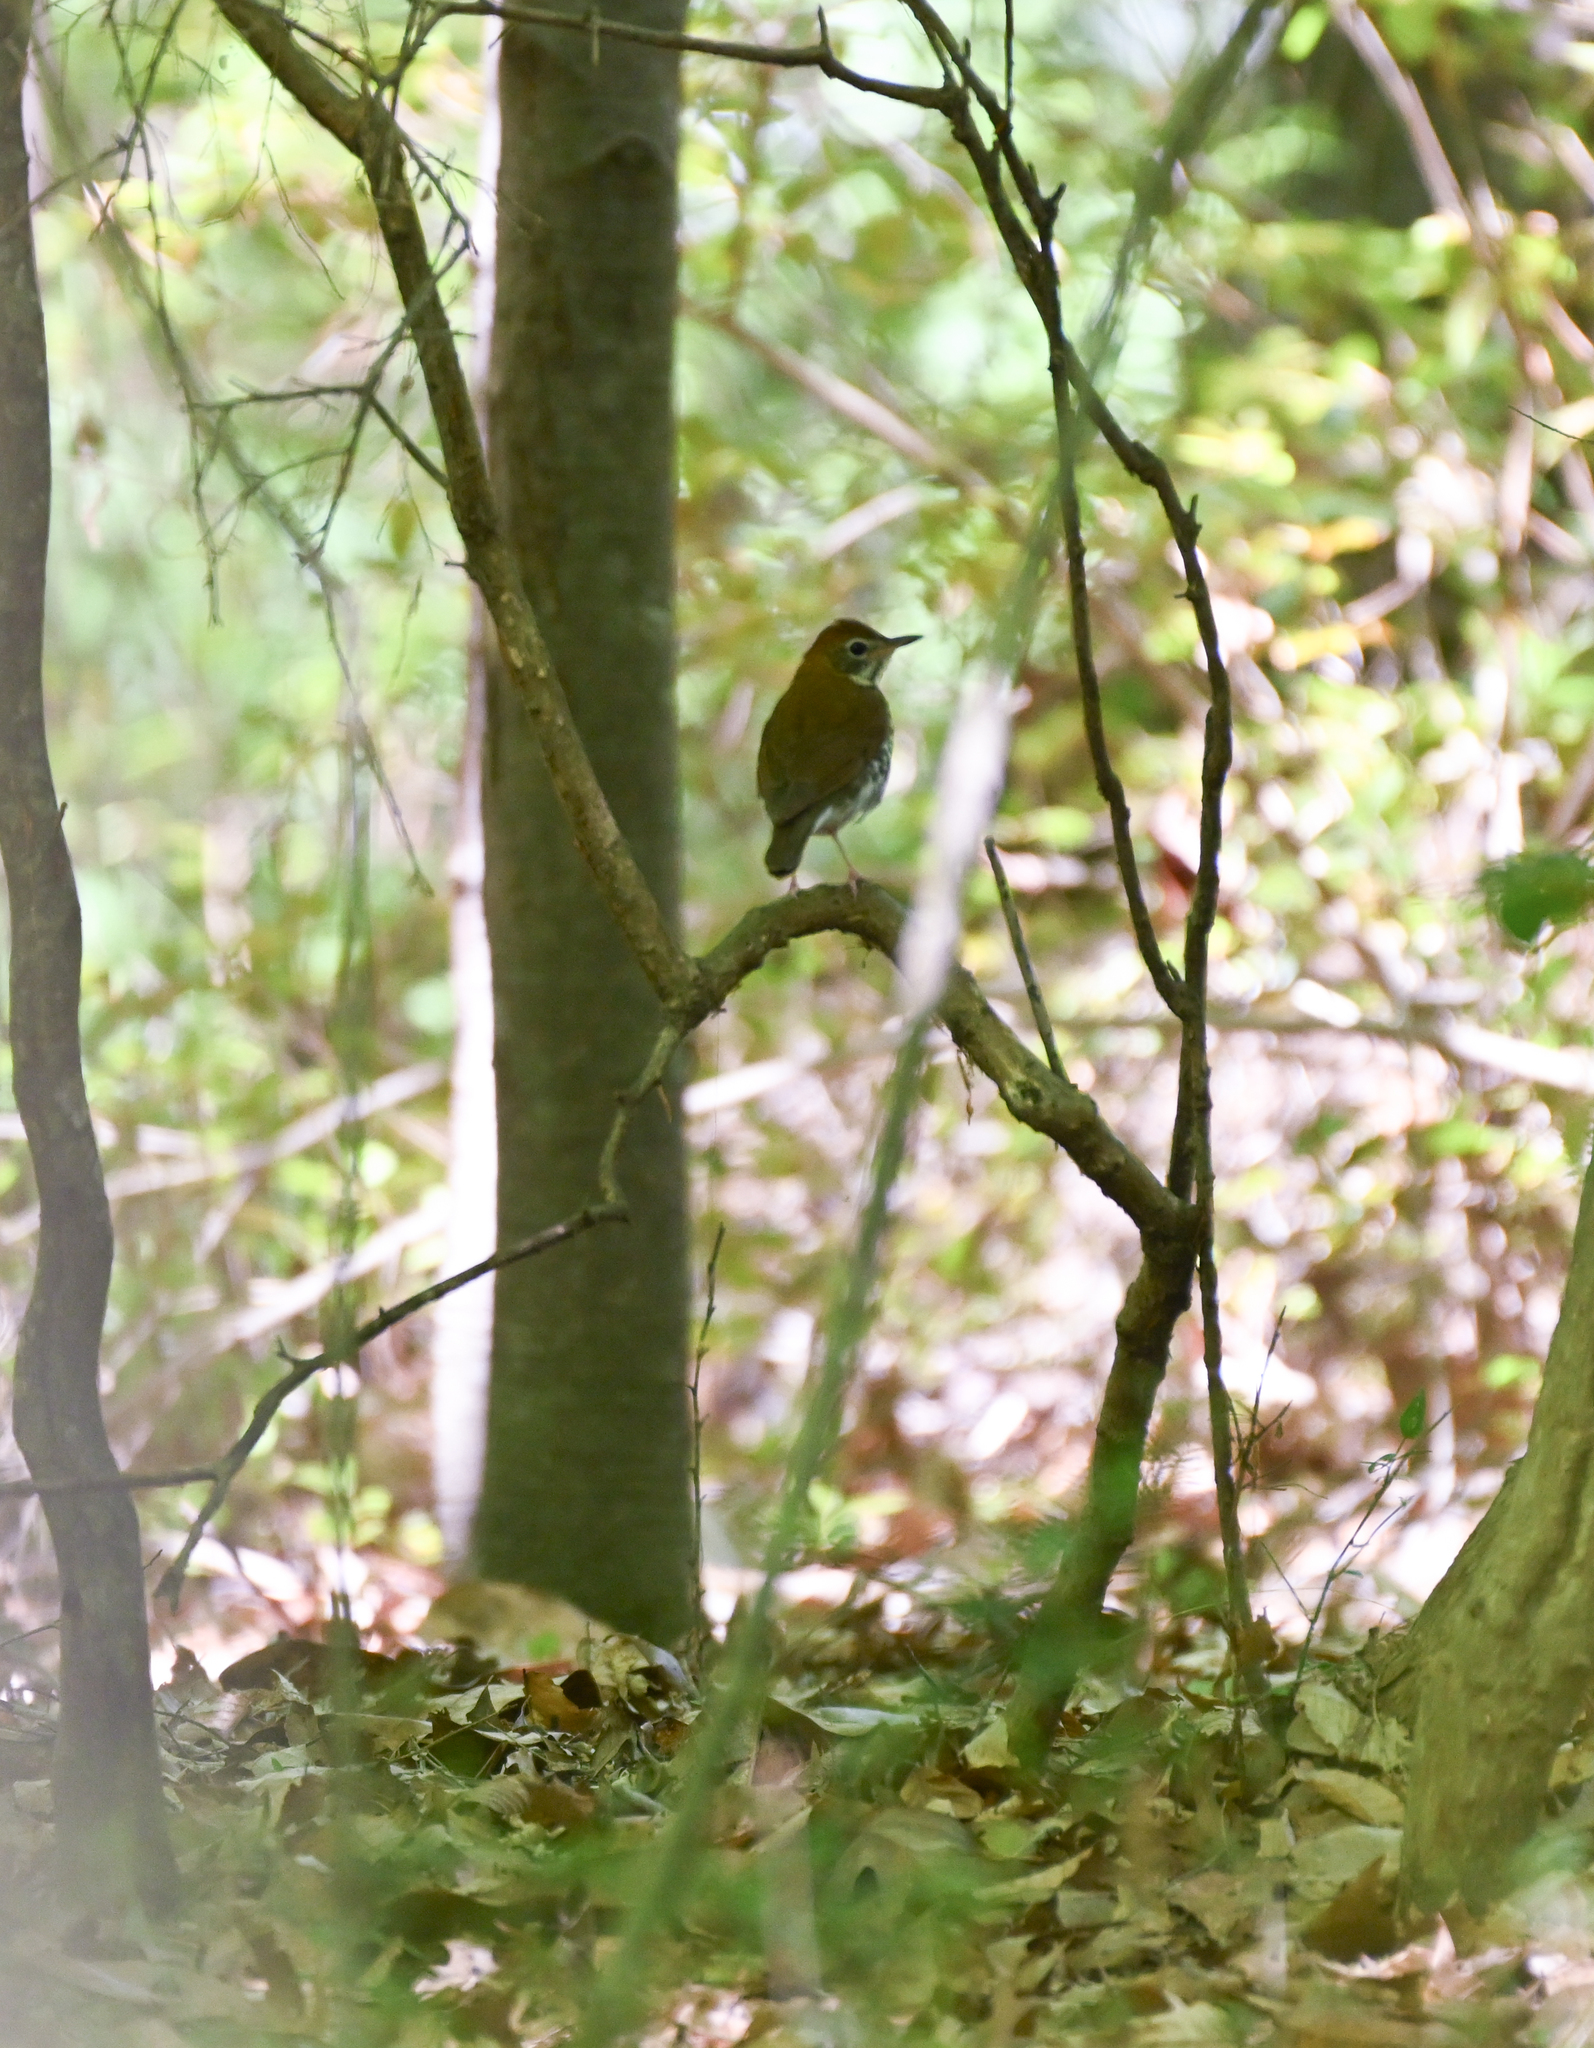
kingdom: Animalia
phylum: Chordata
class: Aves
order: Passeriformes
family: Turdidae
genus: Hylocichla
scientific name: Hylocichla mustelina
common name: Wood thrush
